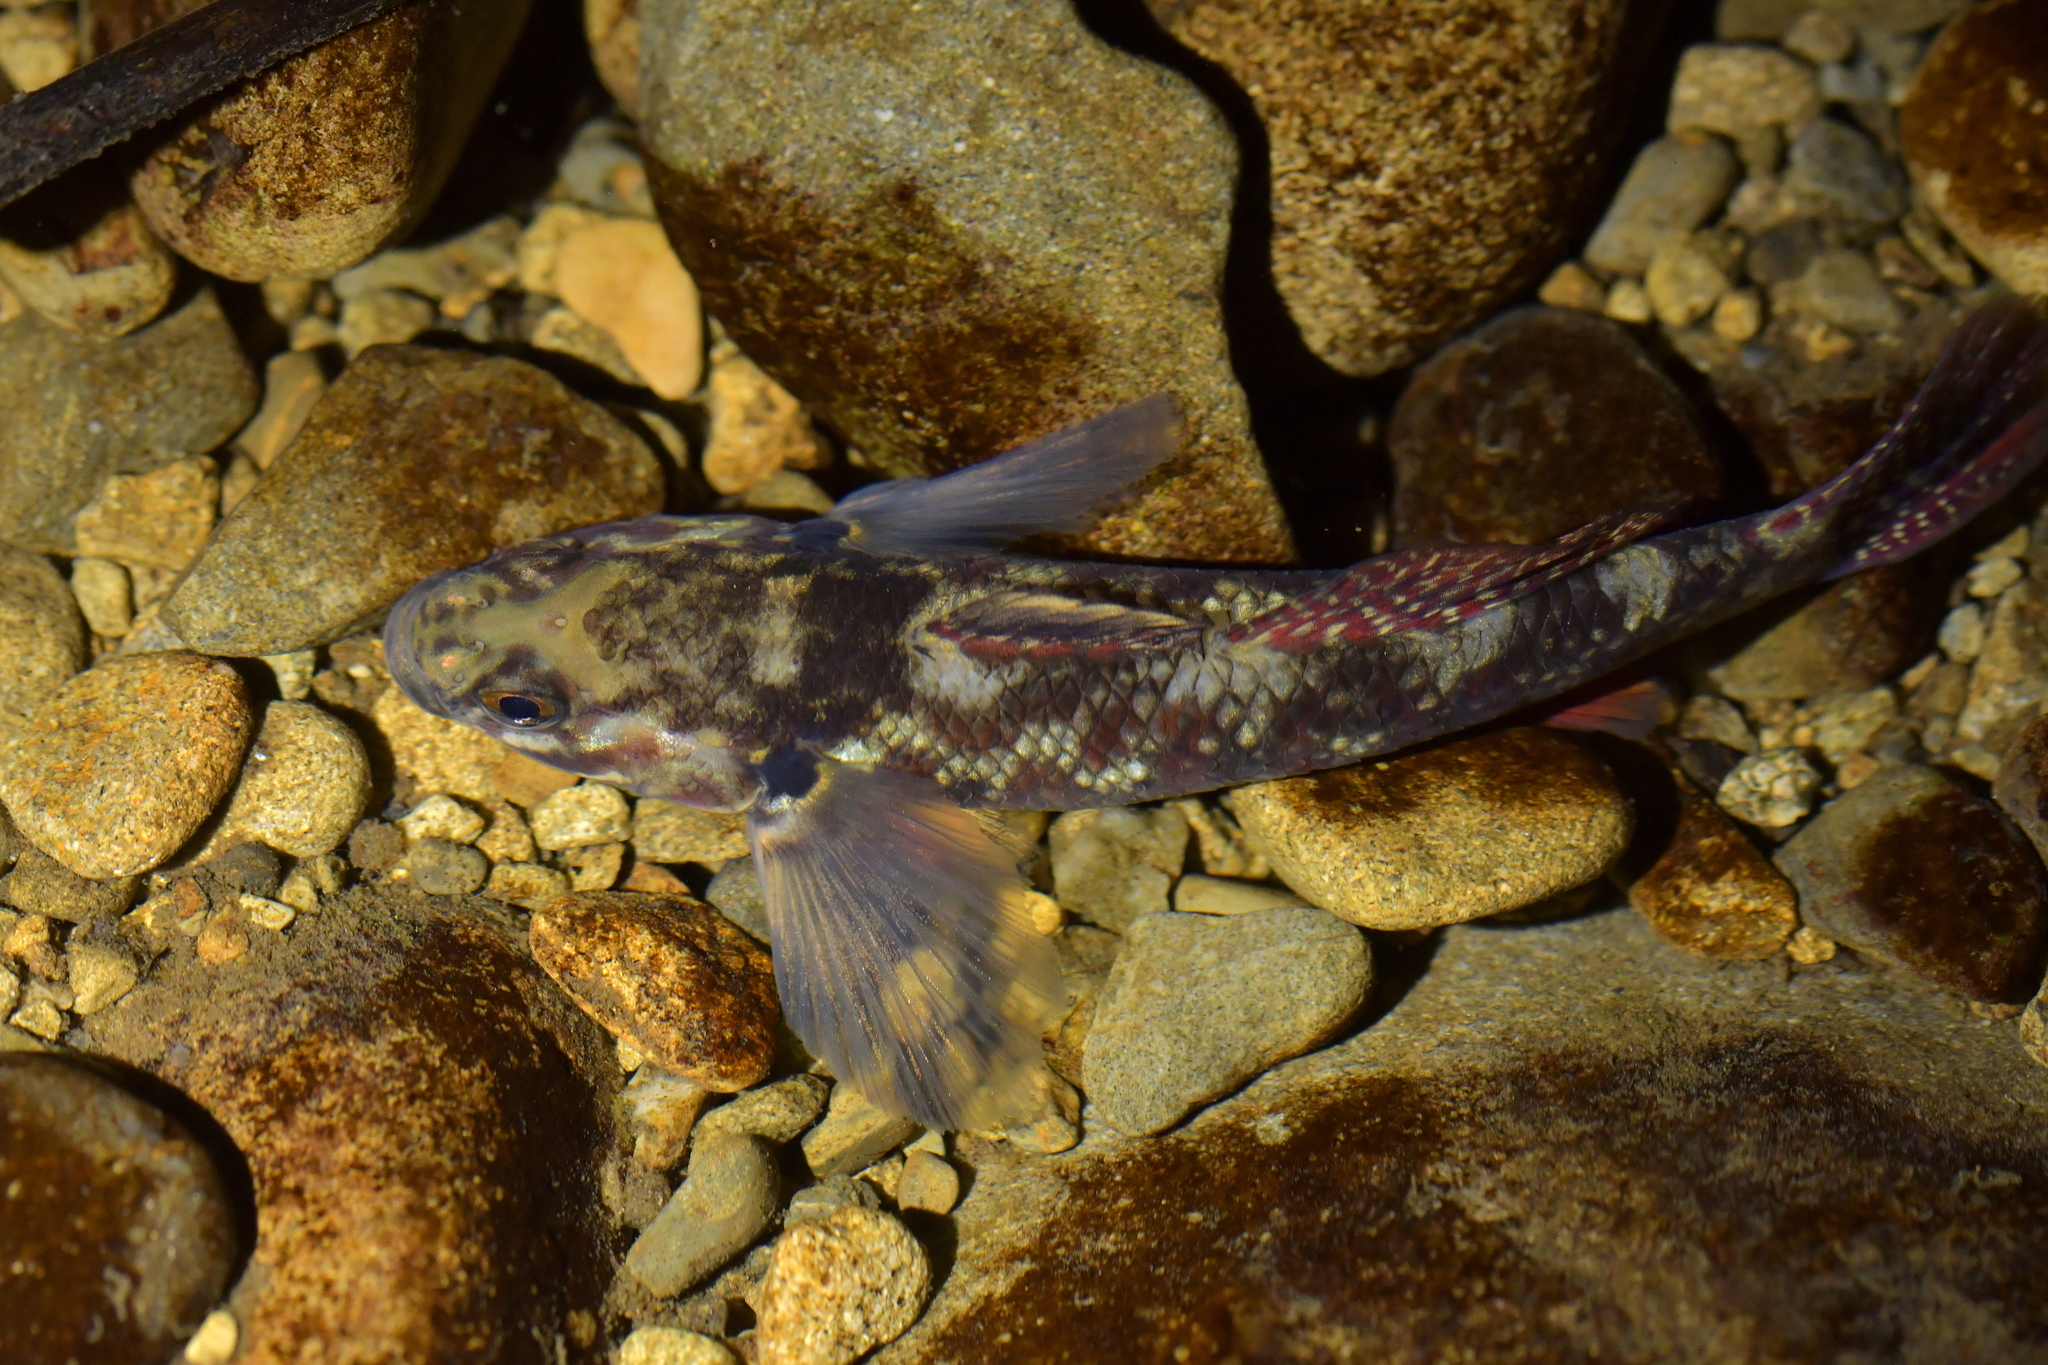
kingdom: Animalia
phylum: Chordata
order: Perciformes
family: Eleotridae
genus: Gobiomorphus
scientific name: Gobiomorphus huttoni
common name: Redfin bully
